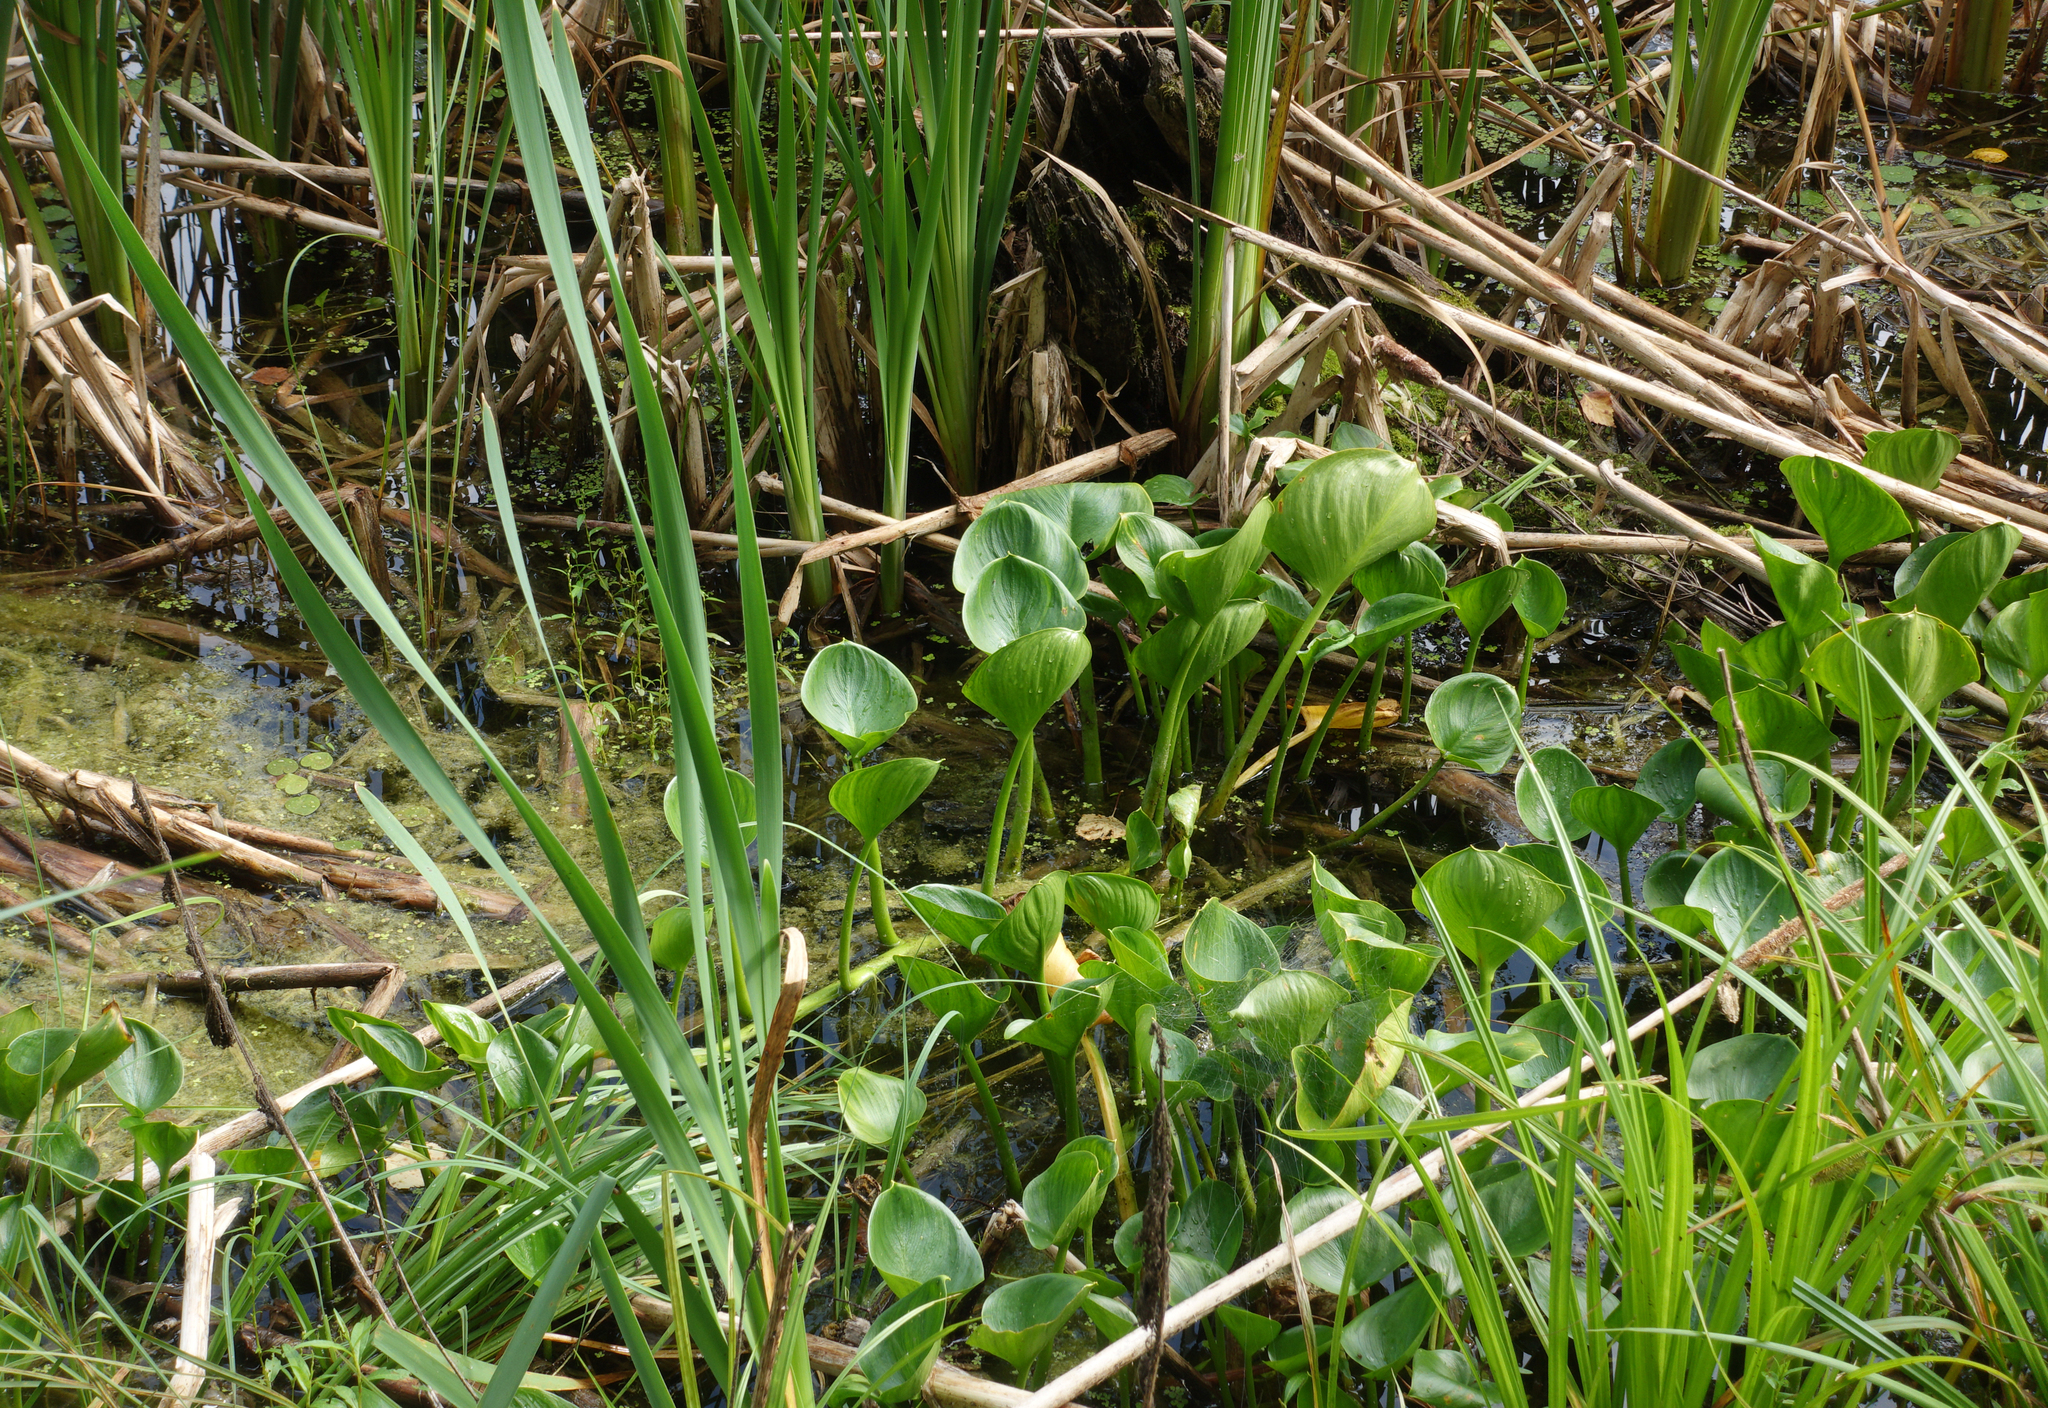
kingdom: Plantae
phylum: Tracheophyta
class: Liliopsida
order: Alismatales
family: Araceae
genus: Calla
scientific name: Calla palustris
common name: Bog arum
